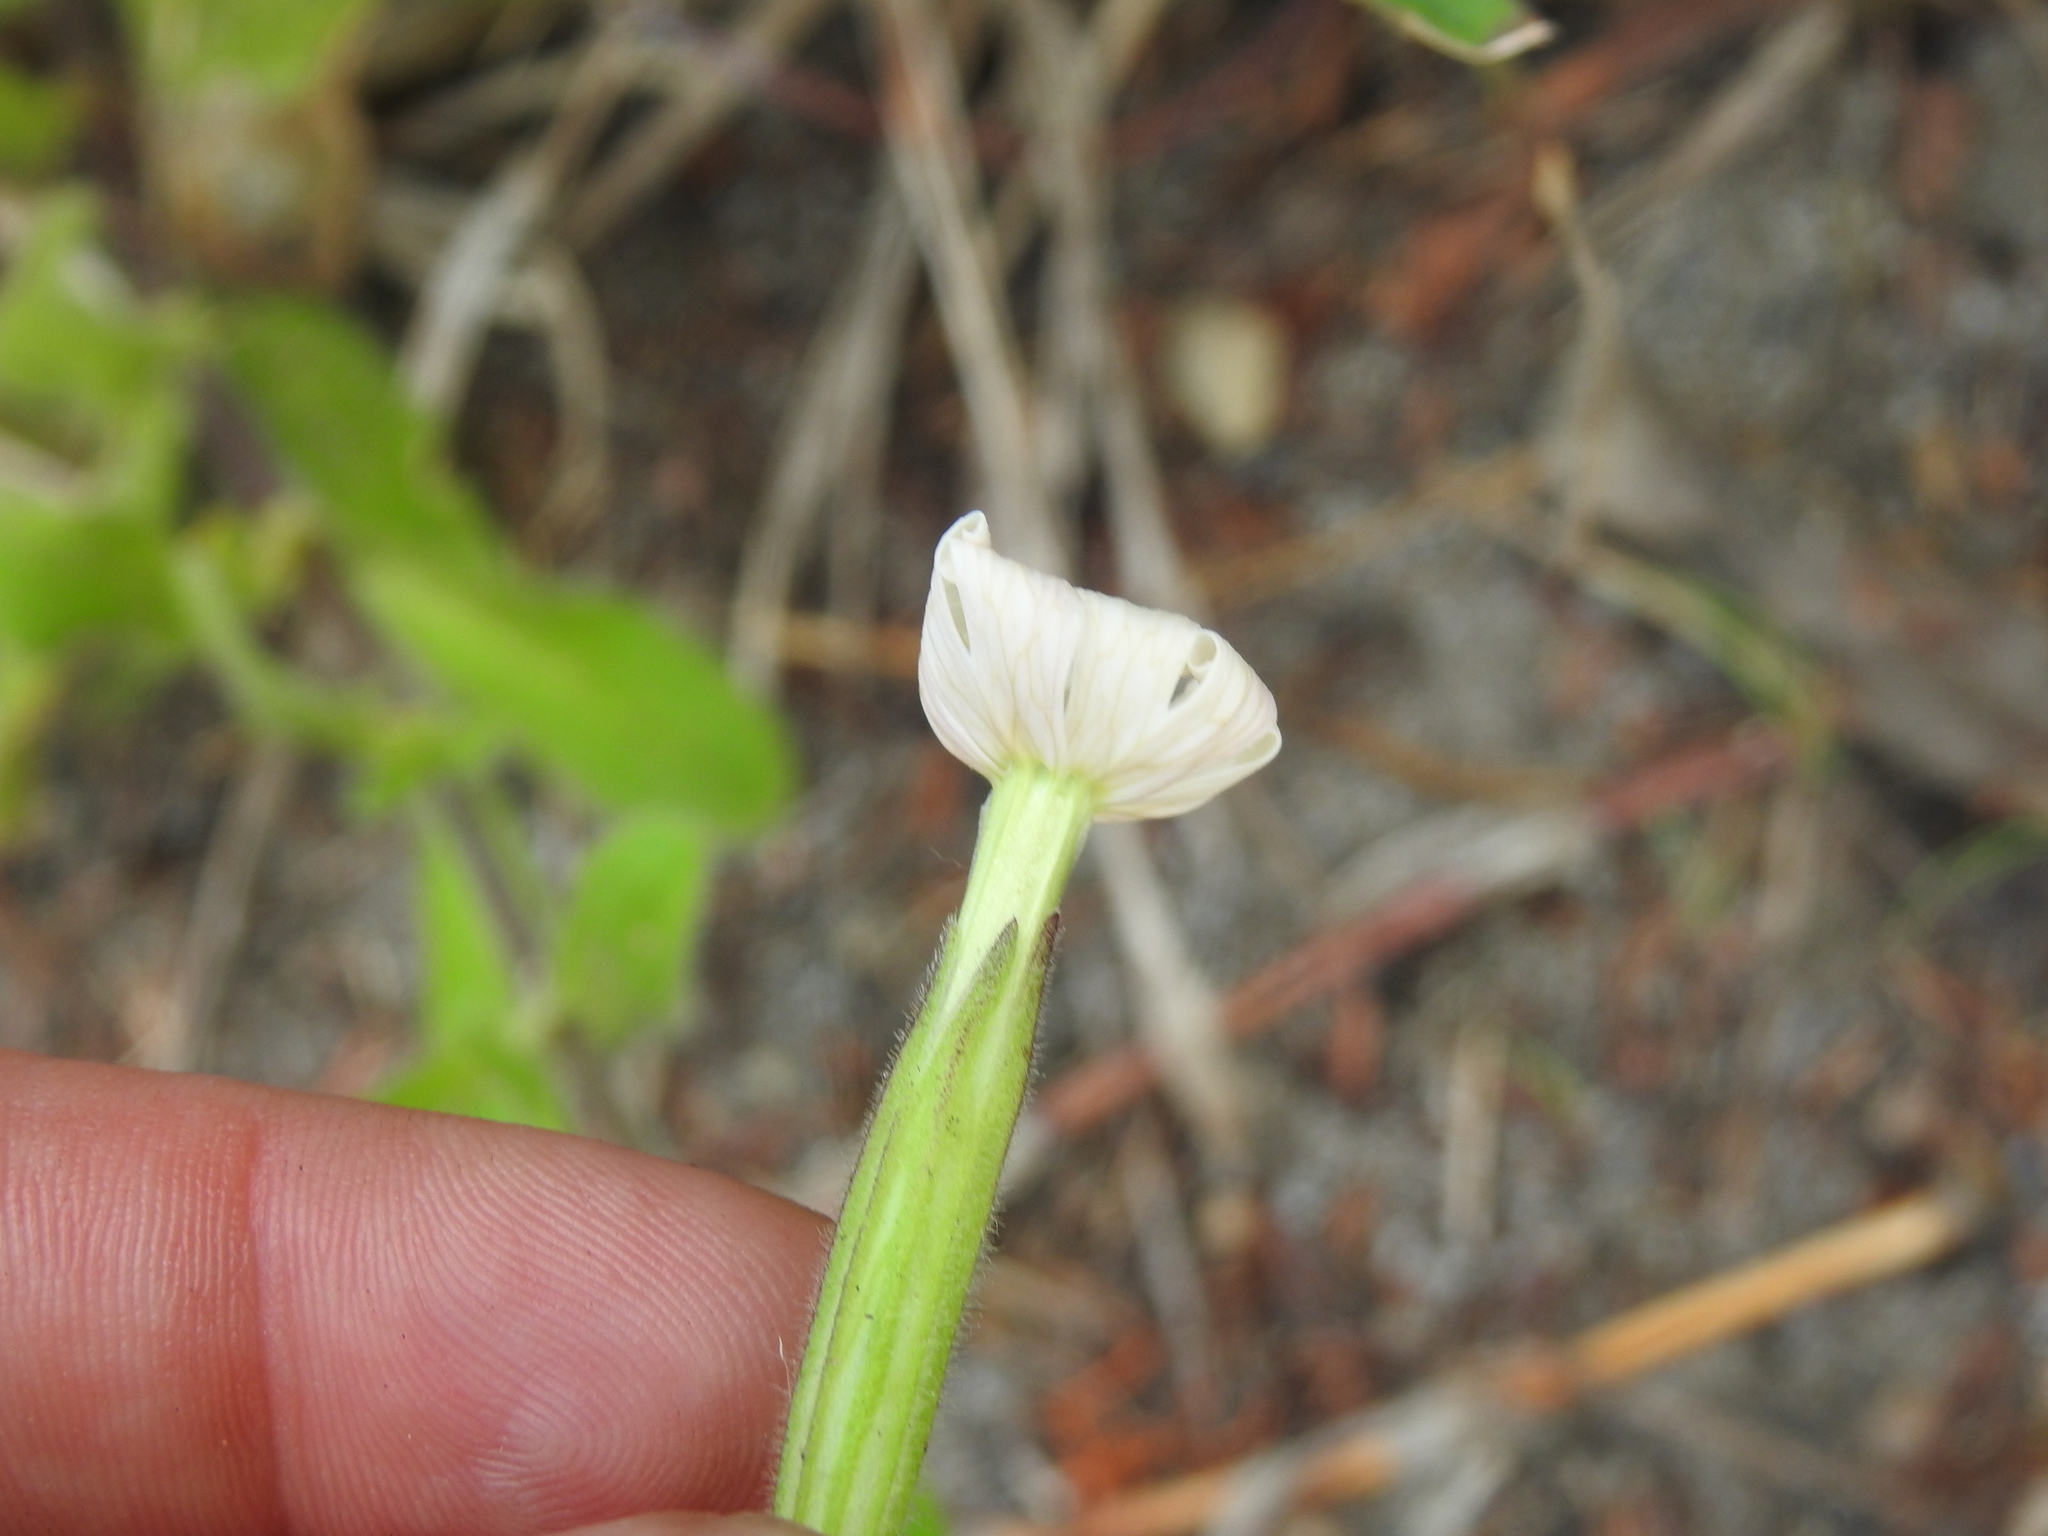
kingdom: Plantae
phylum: Tracheophyta
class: Magnoliopsida
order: Caryophyllales
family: Caryophyllaceae
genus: Silene
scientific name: Silene undulata
